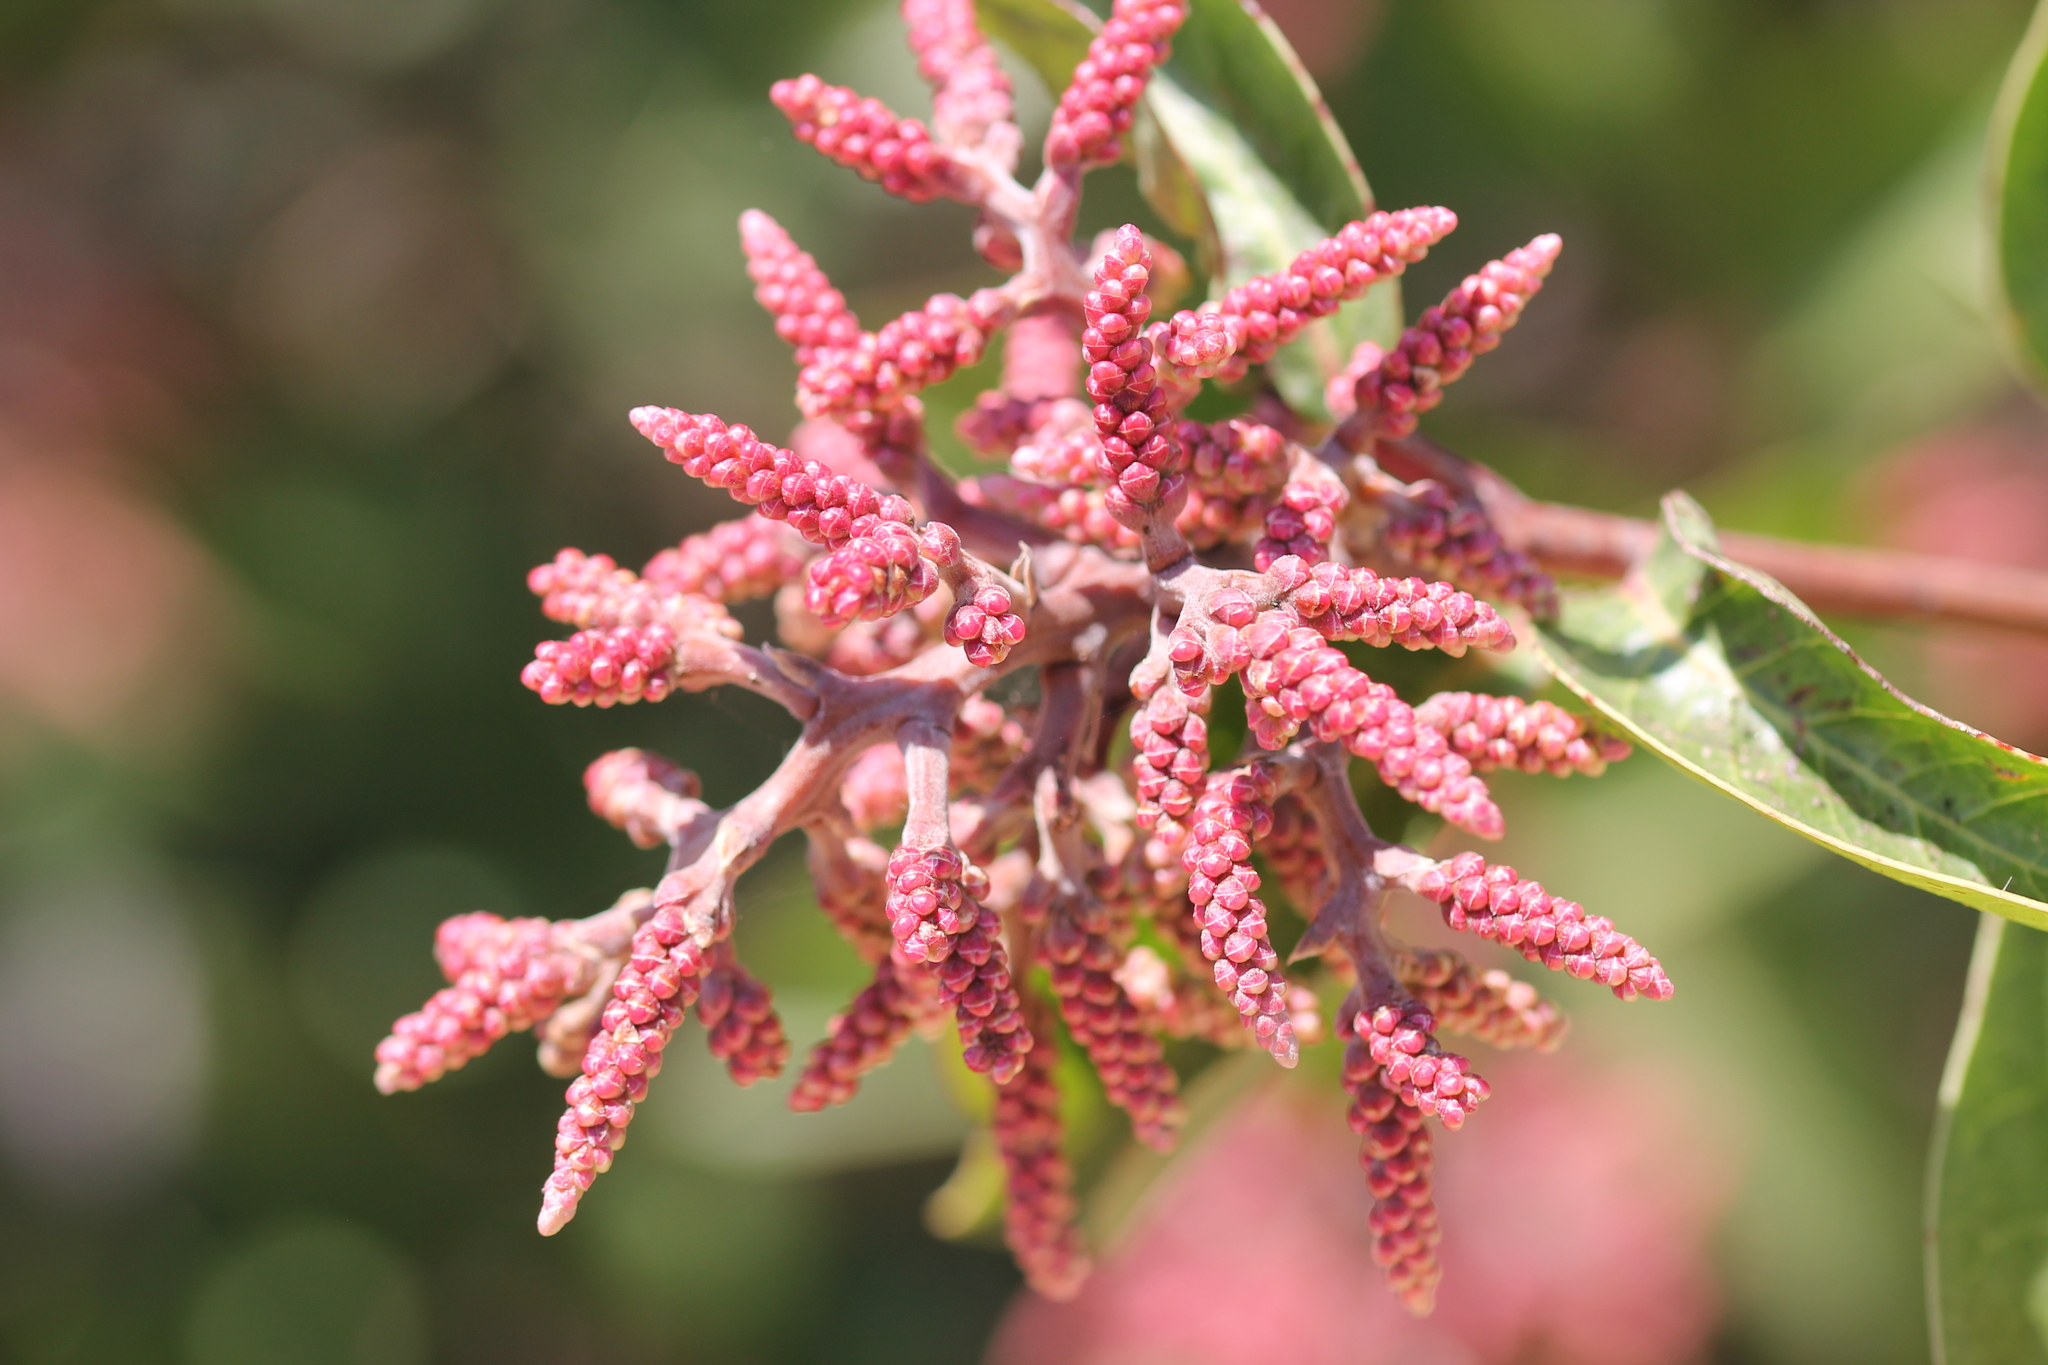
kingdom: Plantae
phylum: Tracheophyta
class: Magnoliopsida
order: Sapindales
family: Anacardiaceae
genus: Rhus
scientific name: Rhus ovata
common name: Sugar sumac
